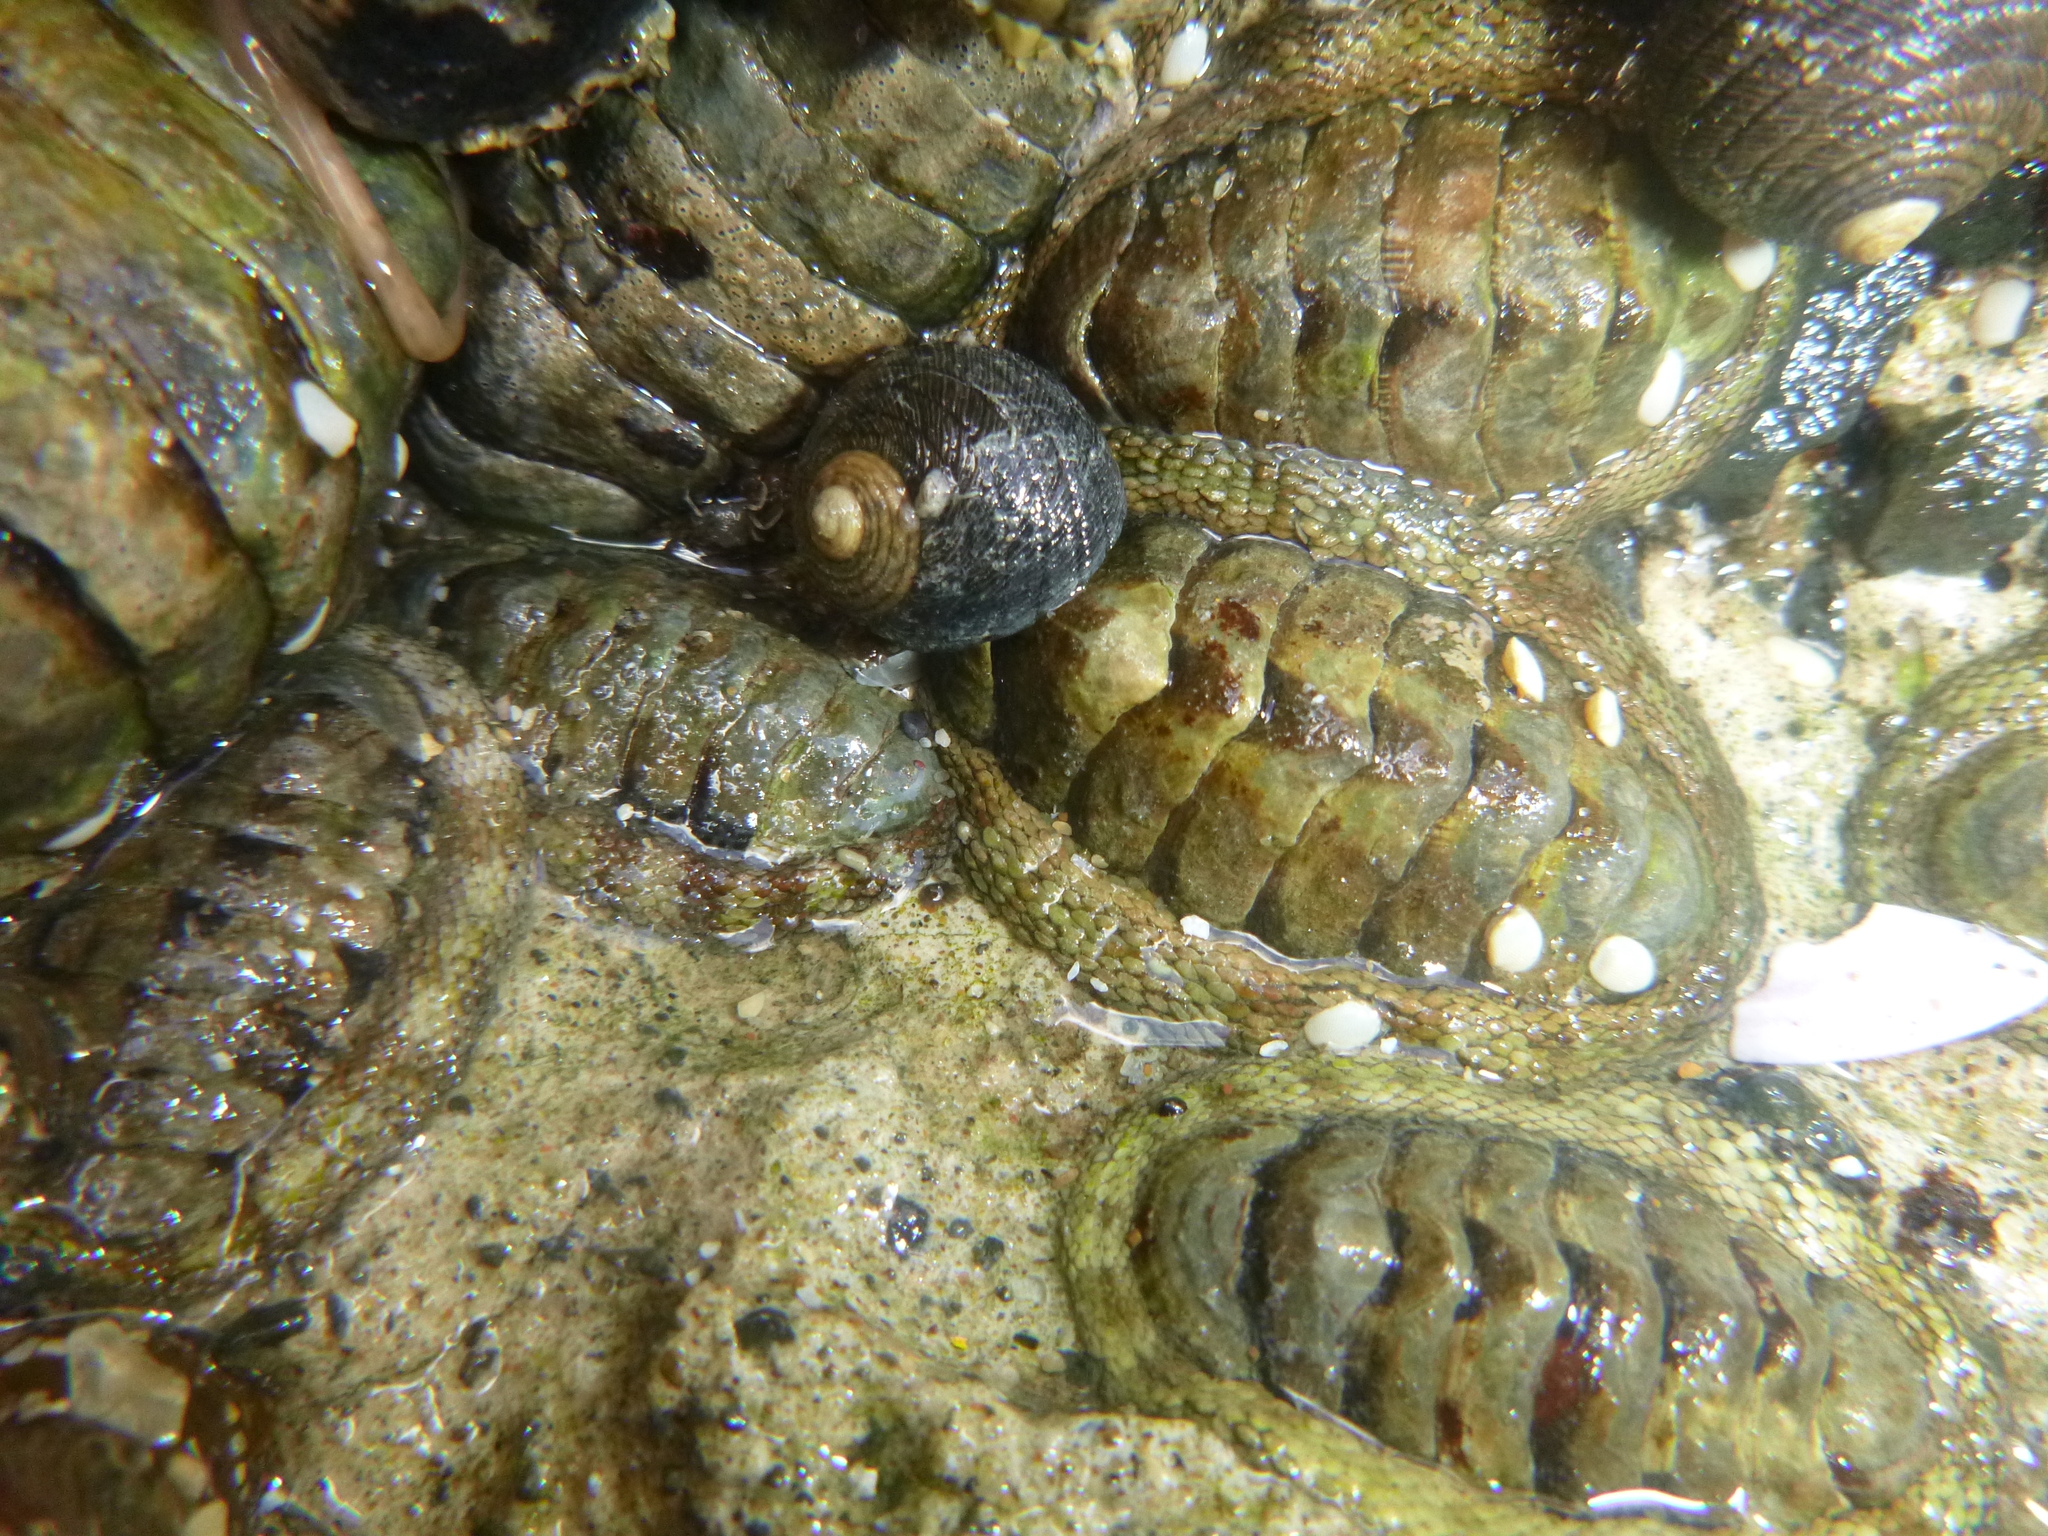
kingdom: Animalia
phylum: Mollusca
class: Polyplacophora
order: Chitonida
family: Chitonidae
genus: Sypharochiton
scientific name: Sypharochiton pelliserpentis
